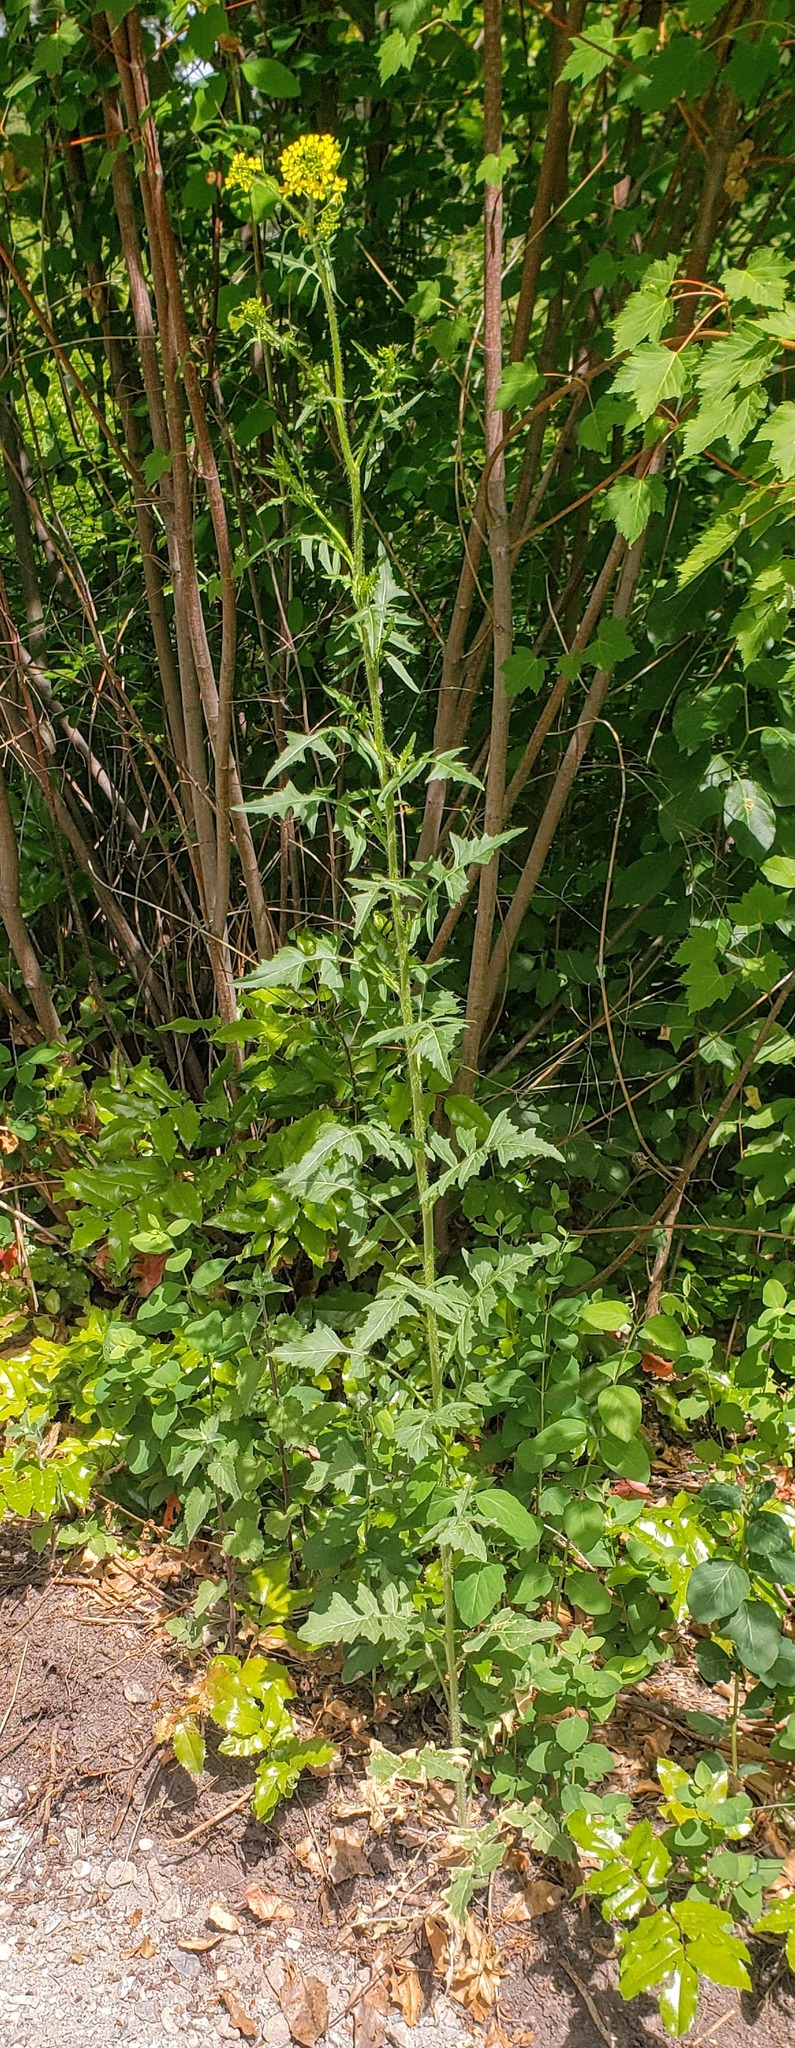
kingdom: Plantae
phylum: Tracheophyta
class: Magnoliopsida
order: Brassicales
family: Brassicaceae
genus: Sisymbrium
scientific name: Sisymbrium loeselii
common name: False london-rocket
